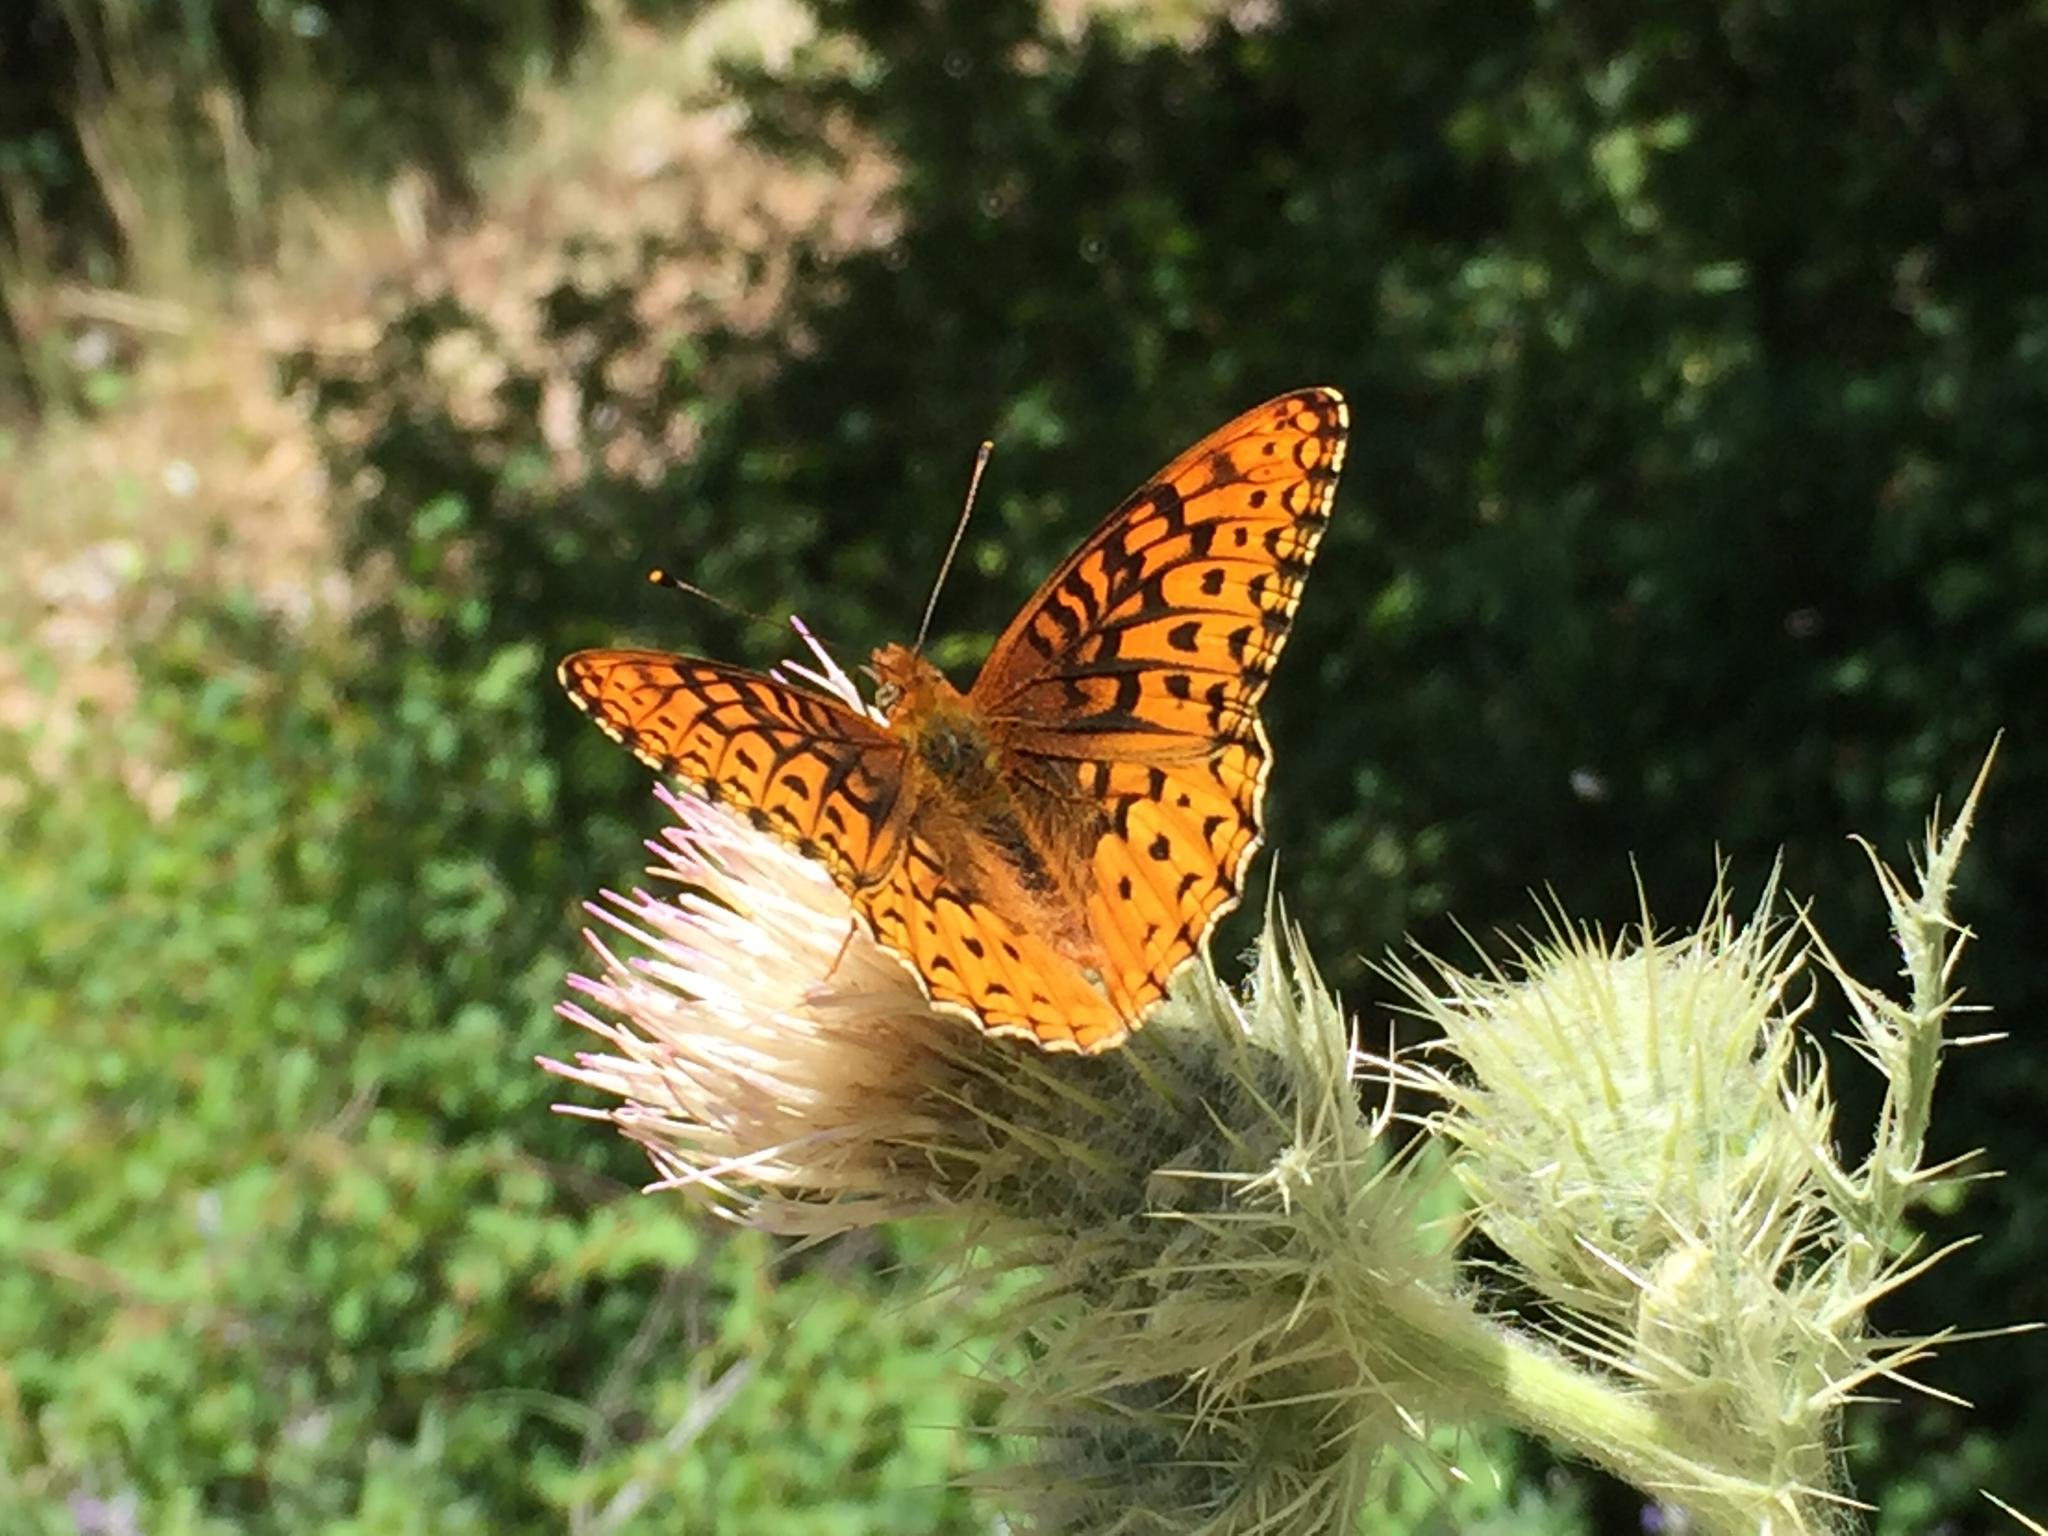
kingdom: Animalia
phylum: Arthropoda
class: Insecta
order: Lepidoptera
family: Nymphalidae
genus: Speyeria
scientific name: Speyeria atlantis
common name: Atlantis fritillary
